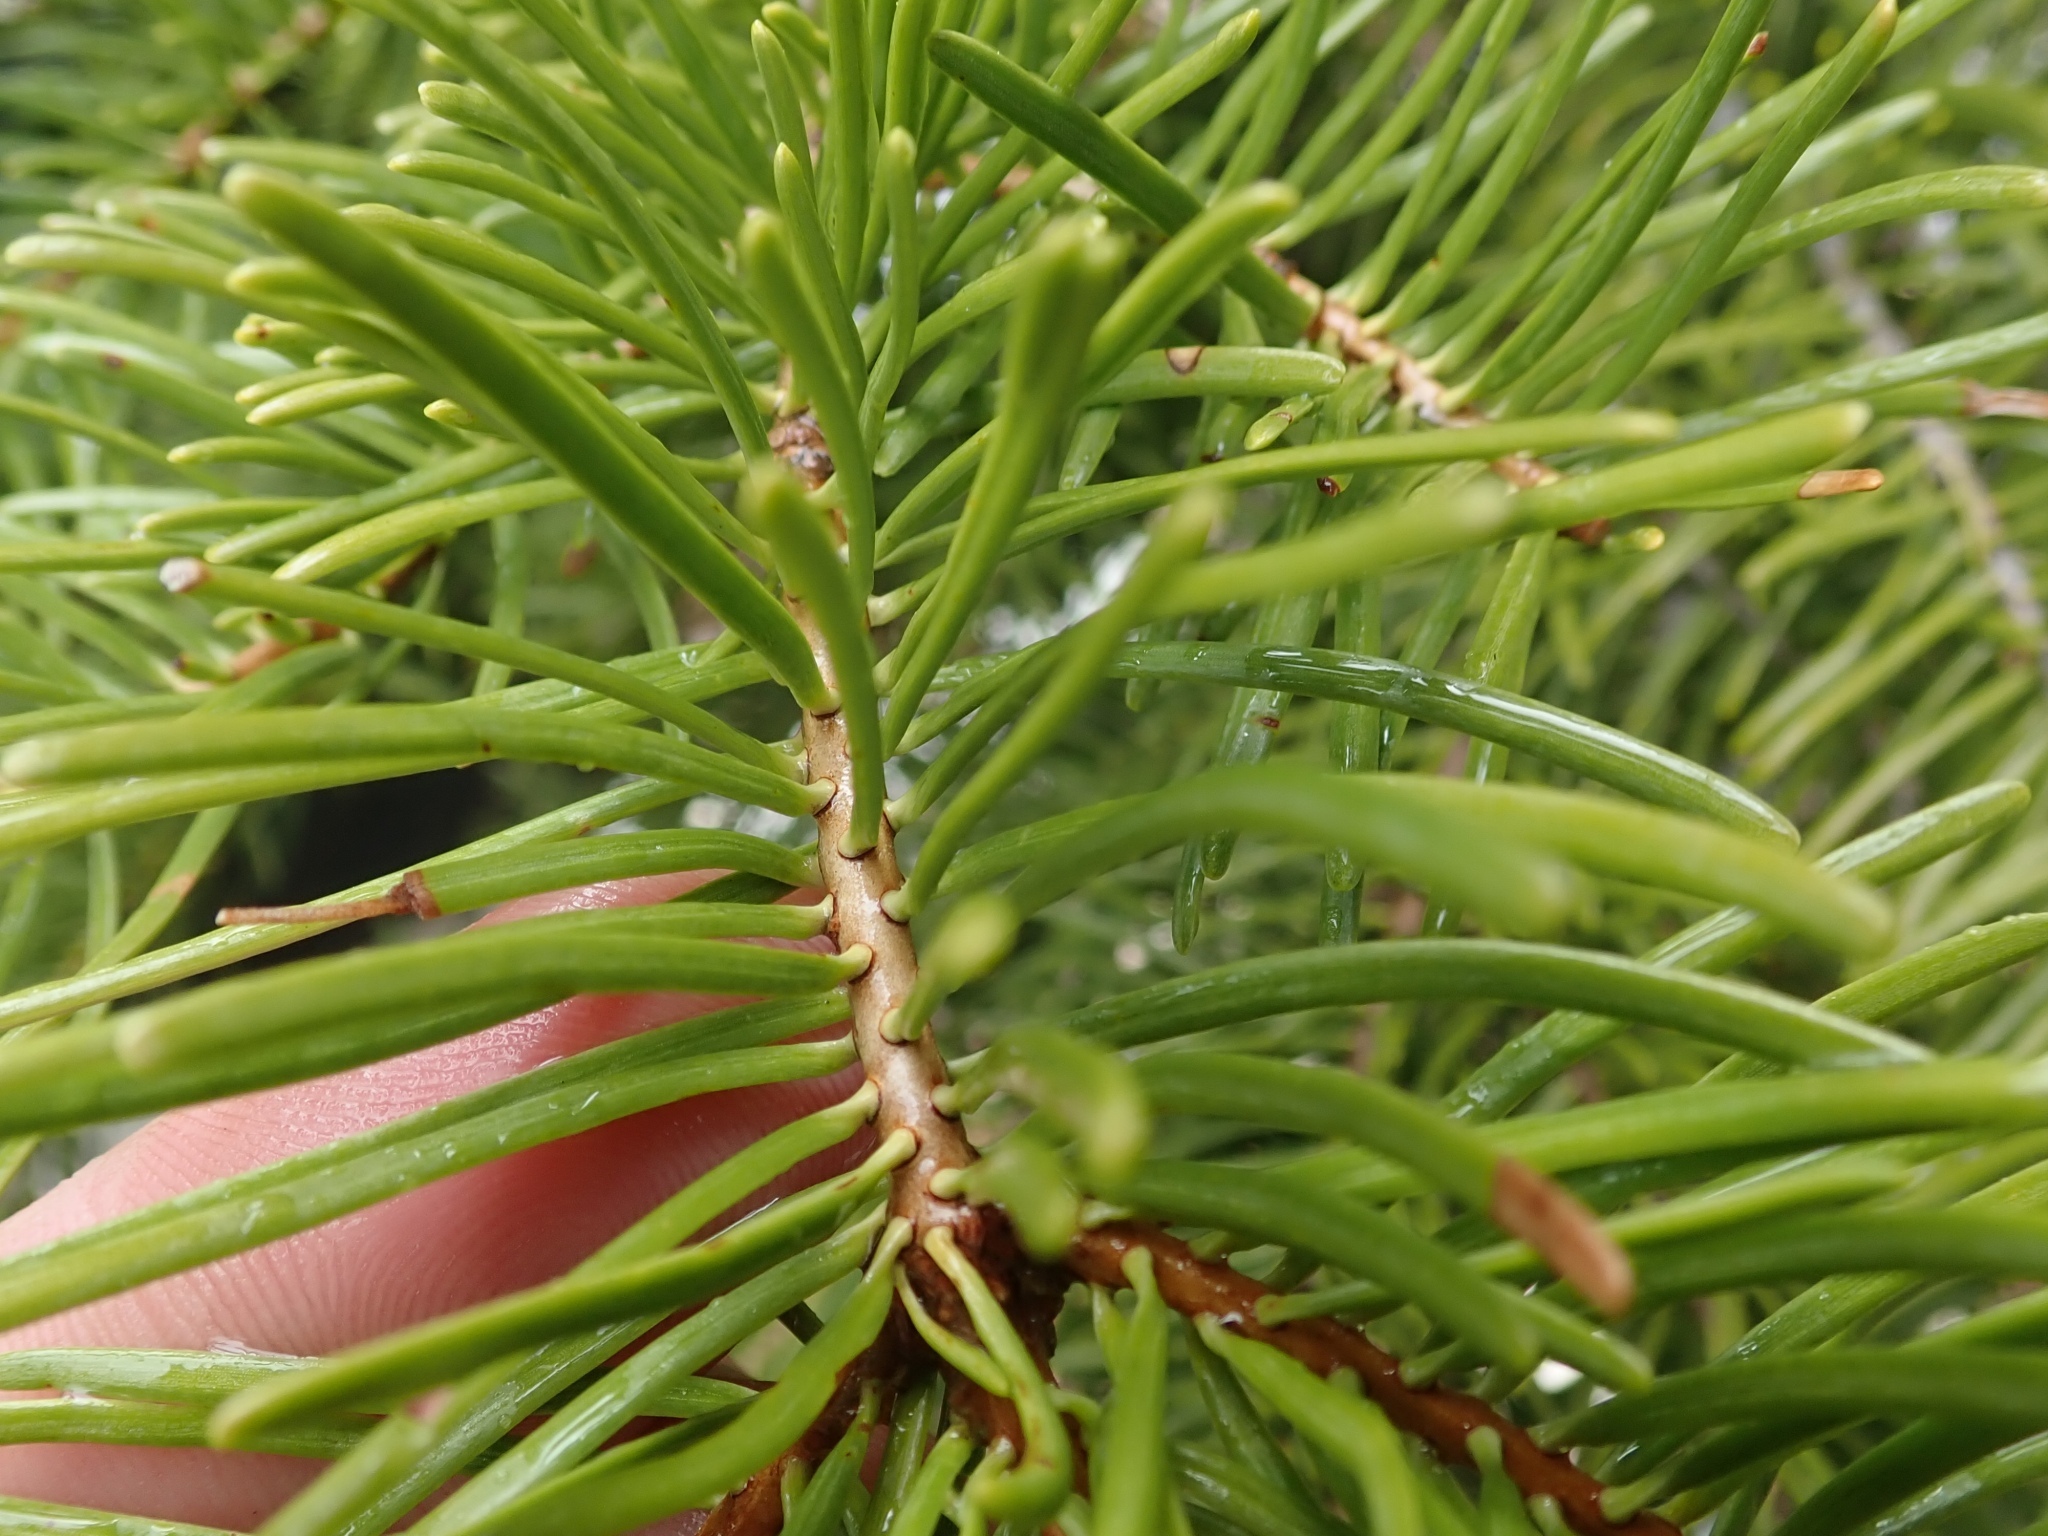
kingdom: Plantae
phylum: Tracheophyta
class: Pinopsida
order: Pinales
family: Pinaceae
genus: Abies
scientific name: Abies concolor
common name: Colorado fir
